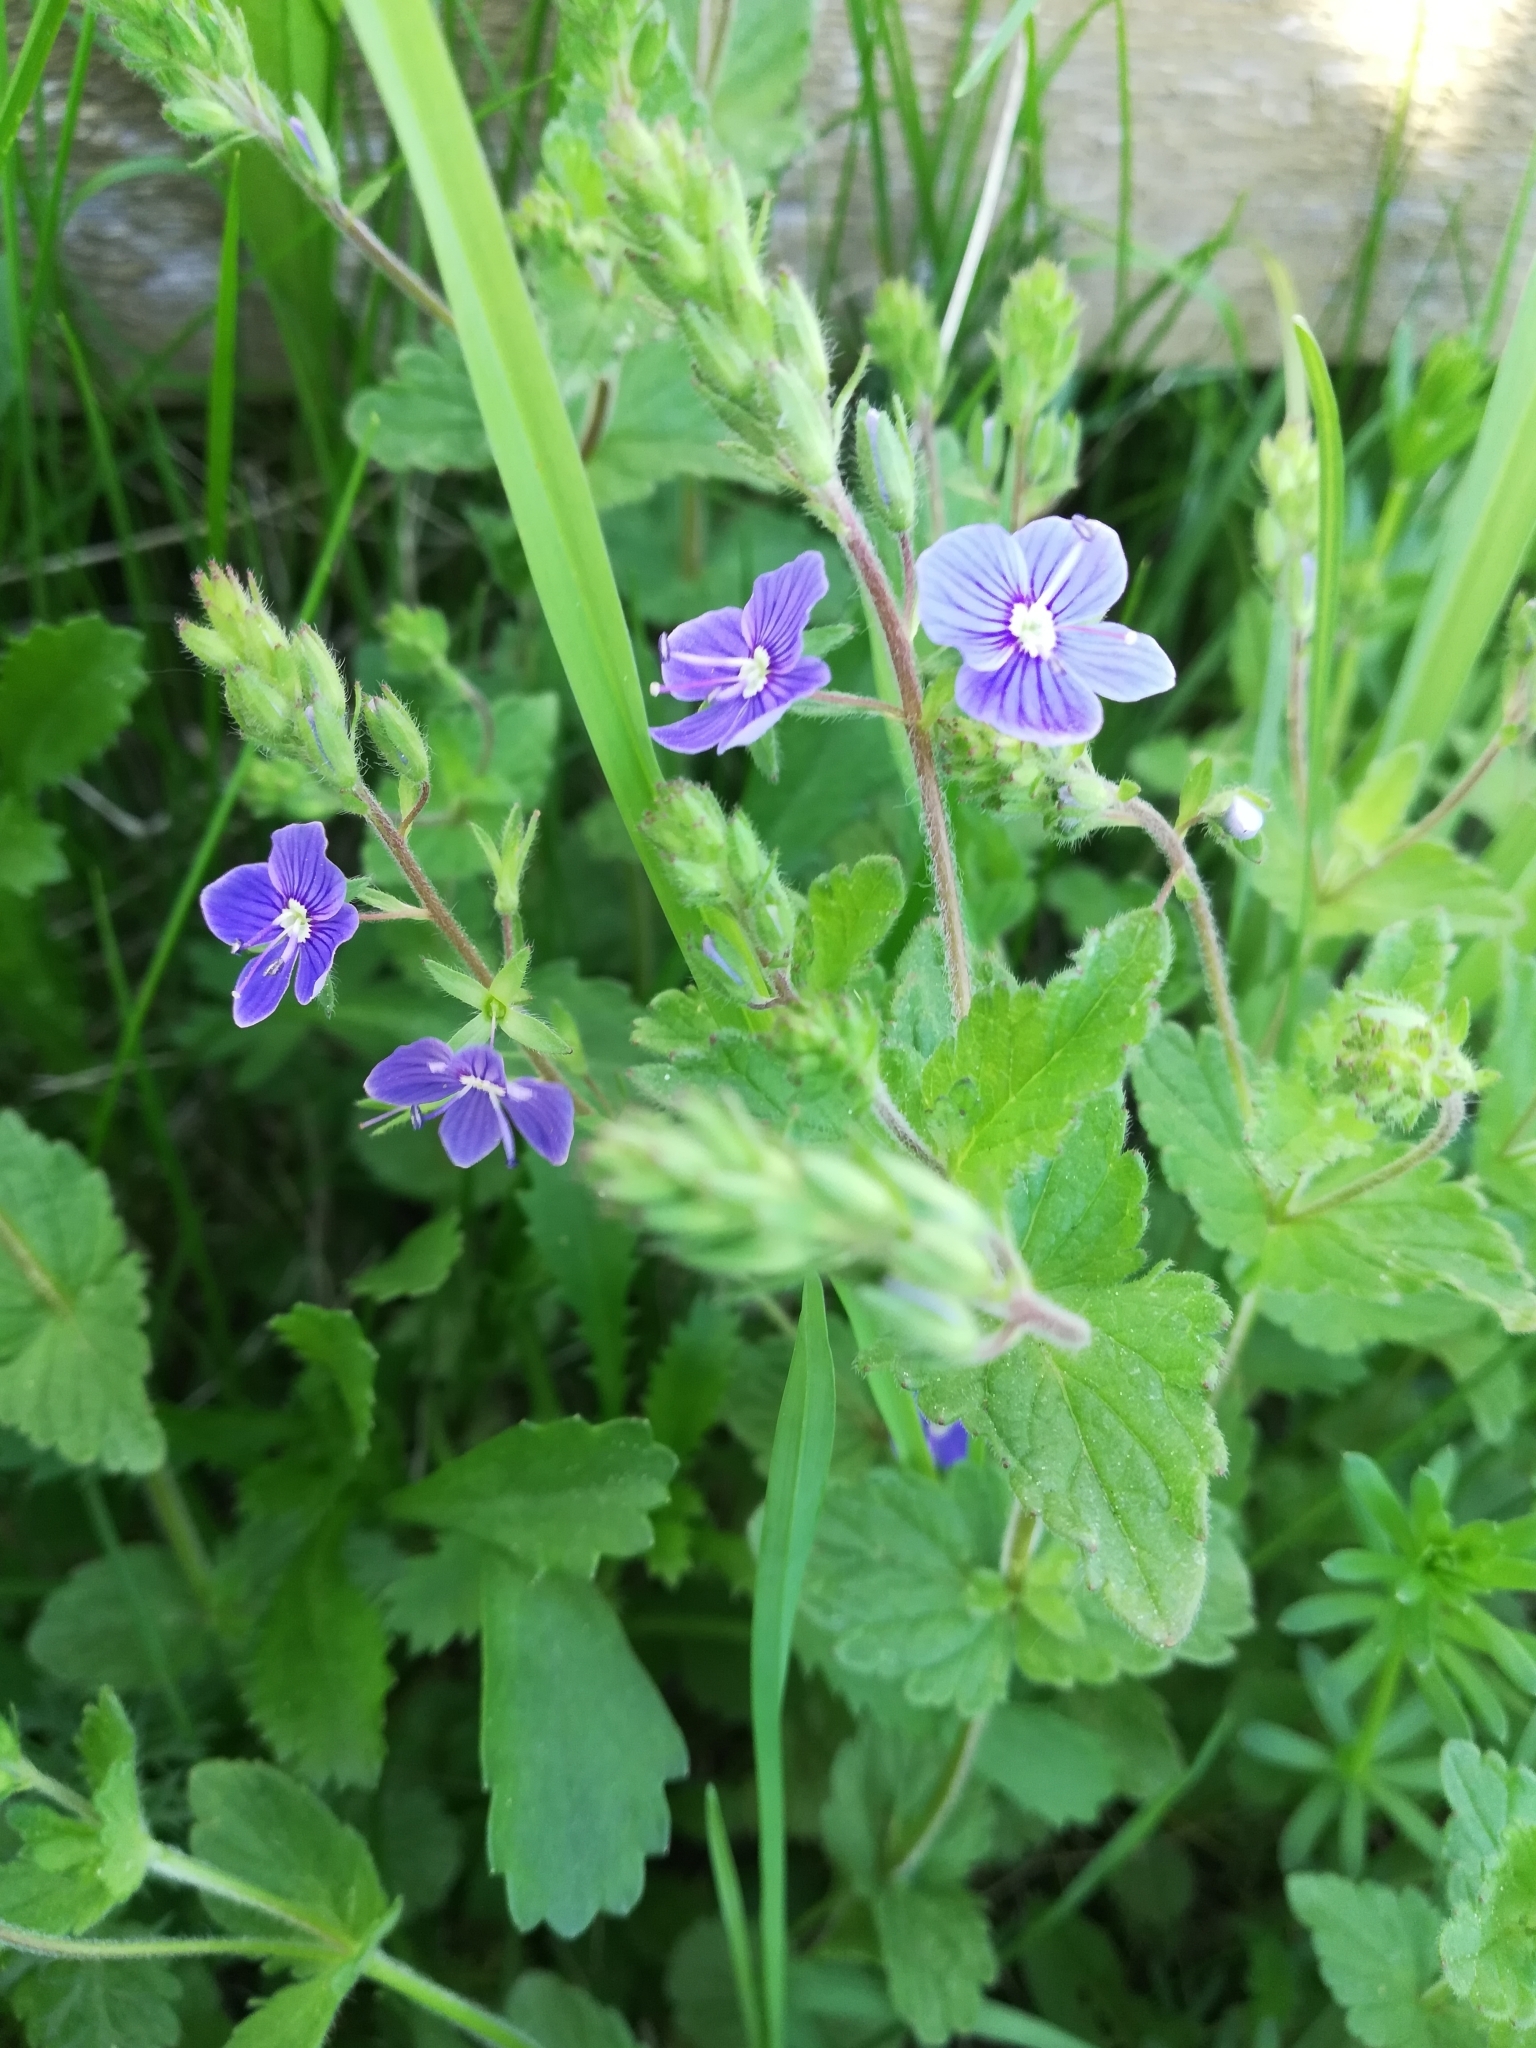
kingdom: Plantae
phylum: Tracheophyta
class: Magnoliopsida
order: Lamiales
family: Plantaginaceae
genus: Veronica
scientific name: Veronica chamaedrys
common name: Germander speedwell
